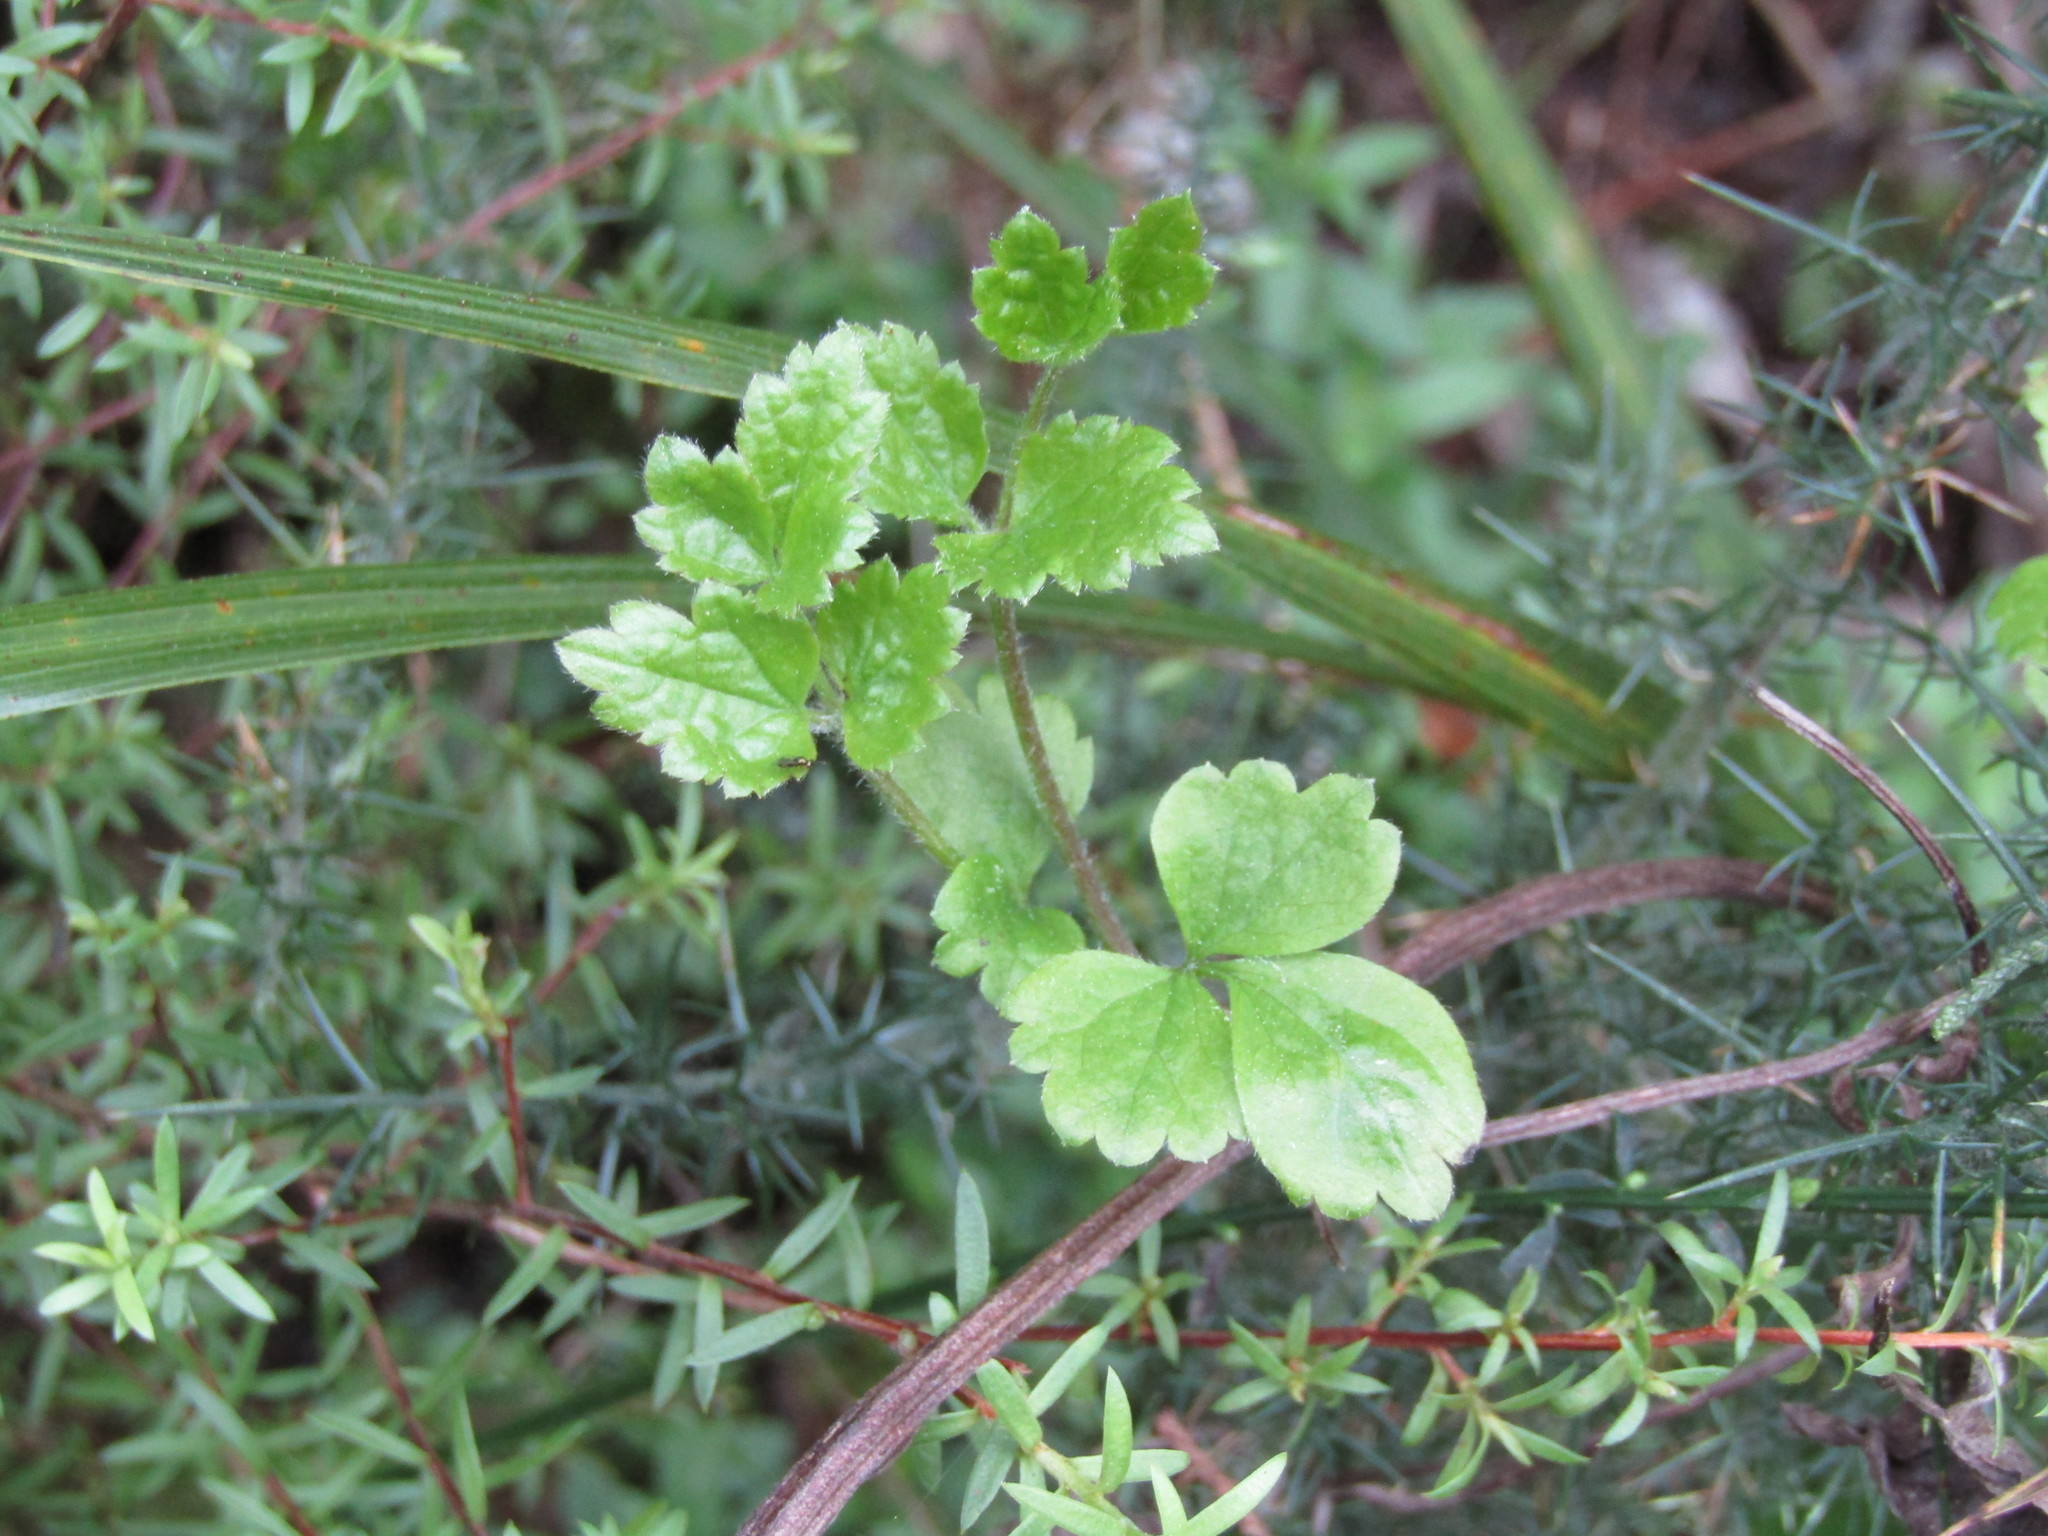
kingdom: Plantae
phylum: Tracheophyta
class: Magnoliopsida
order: Ranunculales
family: Ranunculaceae
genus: Clematis
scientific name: Clematis vitalba
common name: Evergreen clematis
